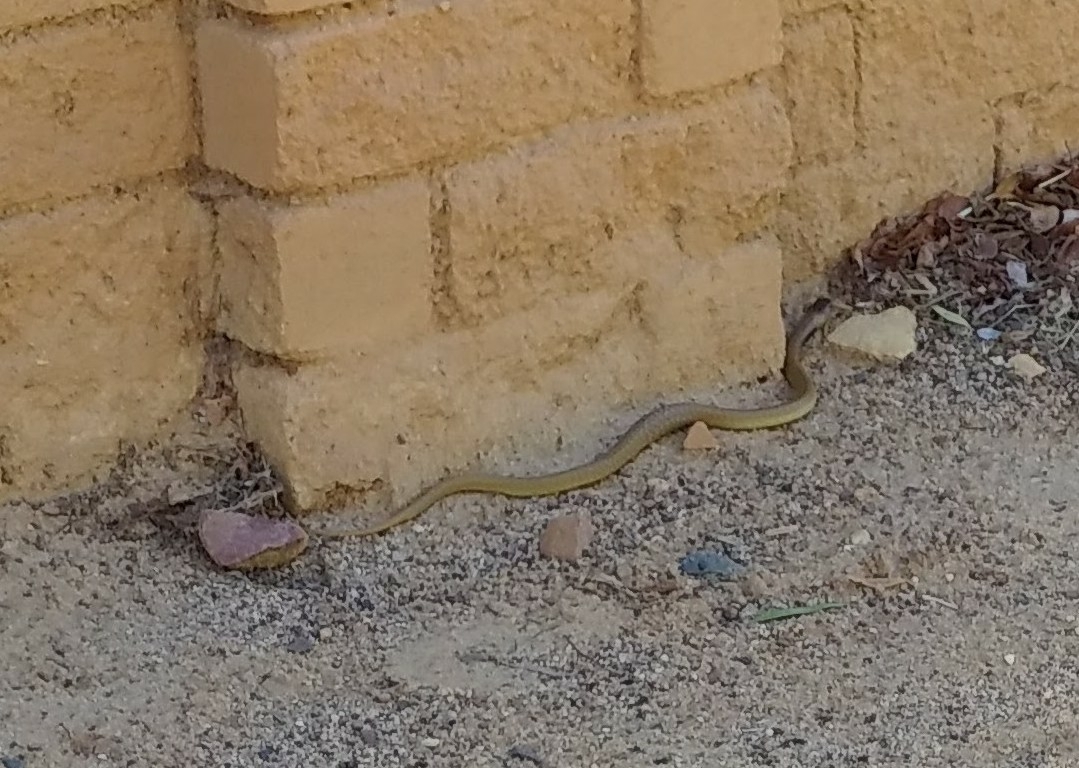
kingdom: Animalia
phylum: Chordata
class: Squamata
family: Elapidae
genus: Naja
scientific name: Naja nivea
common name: Cape cobra
